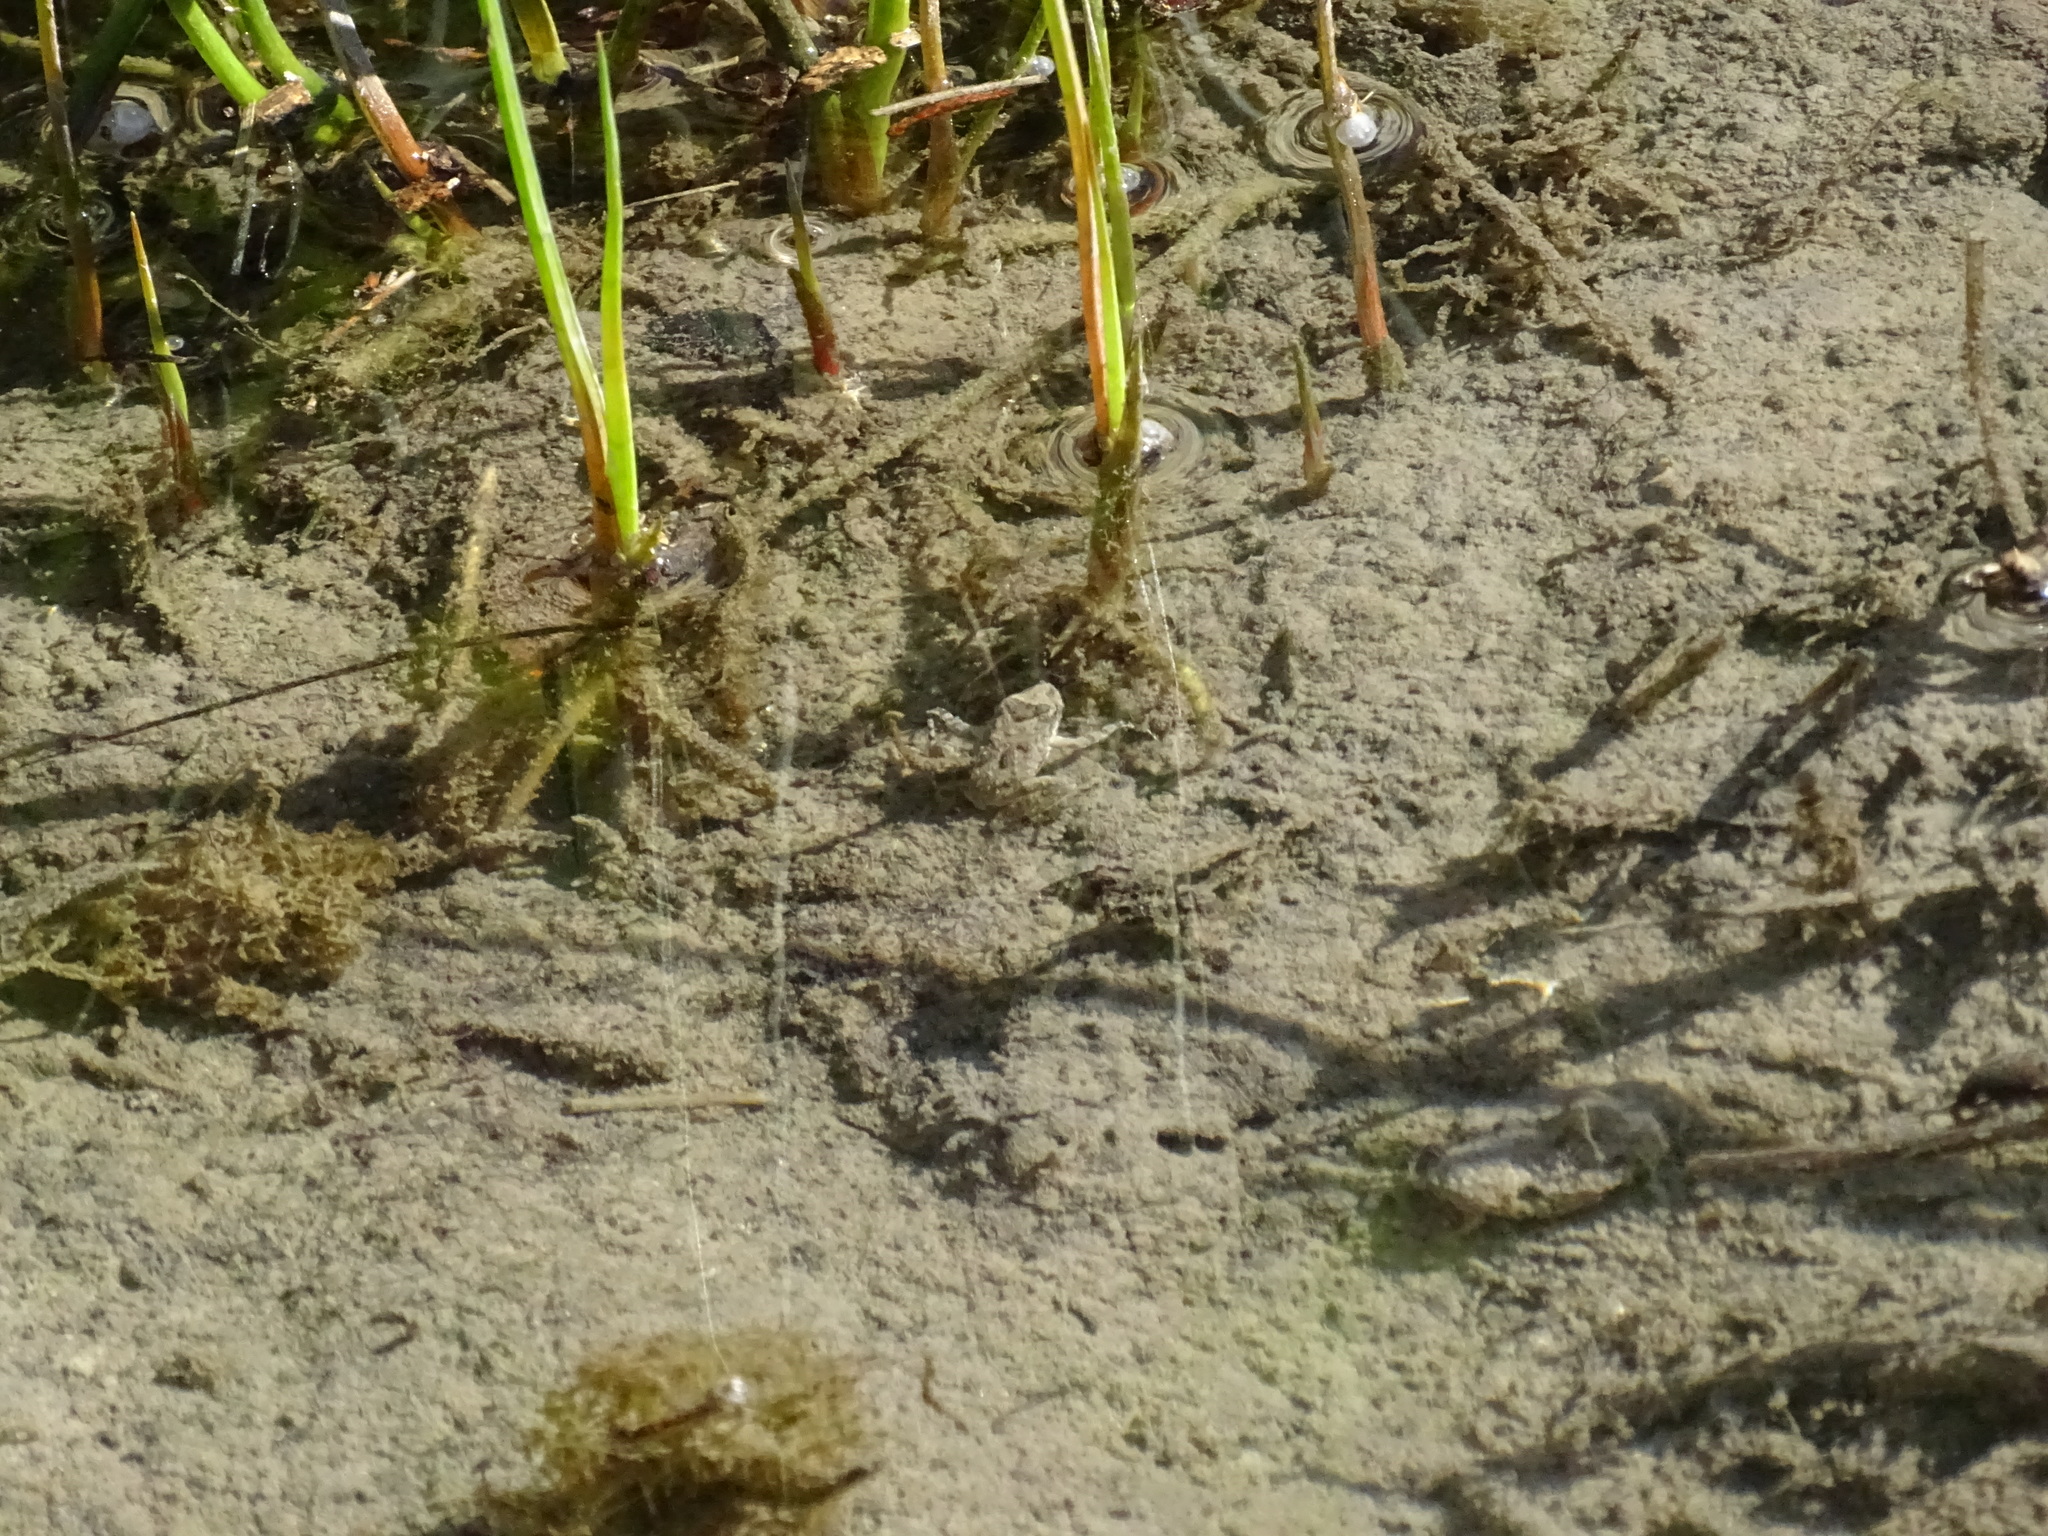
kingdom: Animalia
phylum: Chordata
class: Amphibia
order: Anura
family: Hylidae
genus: Acris
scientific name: Acris blanchardi
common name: Blanchard's cricket frog
